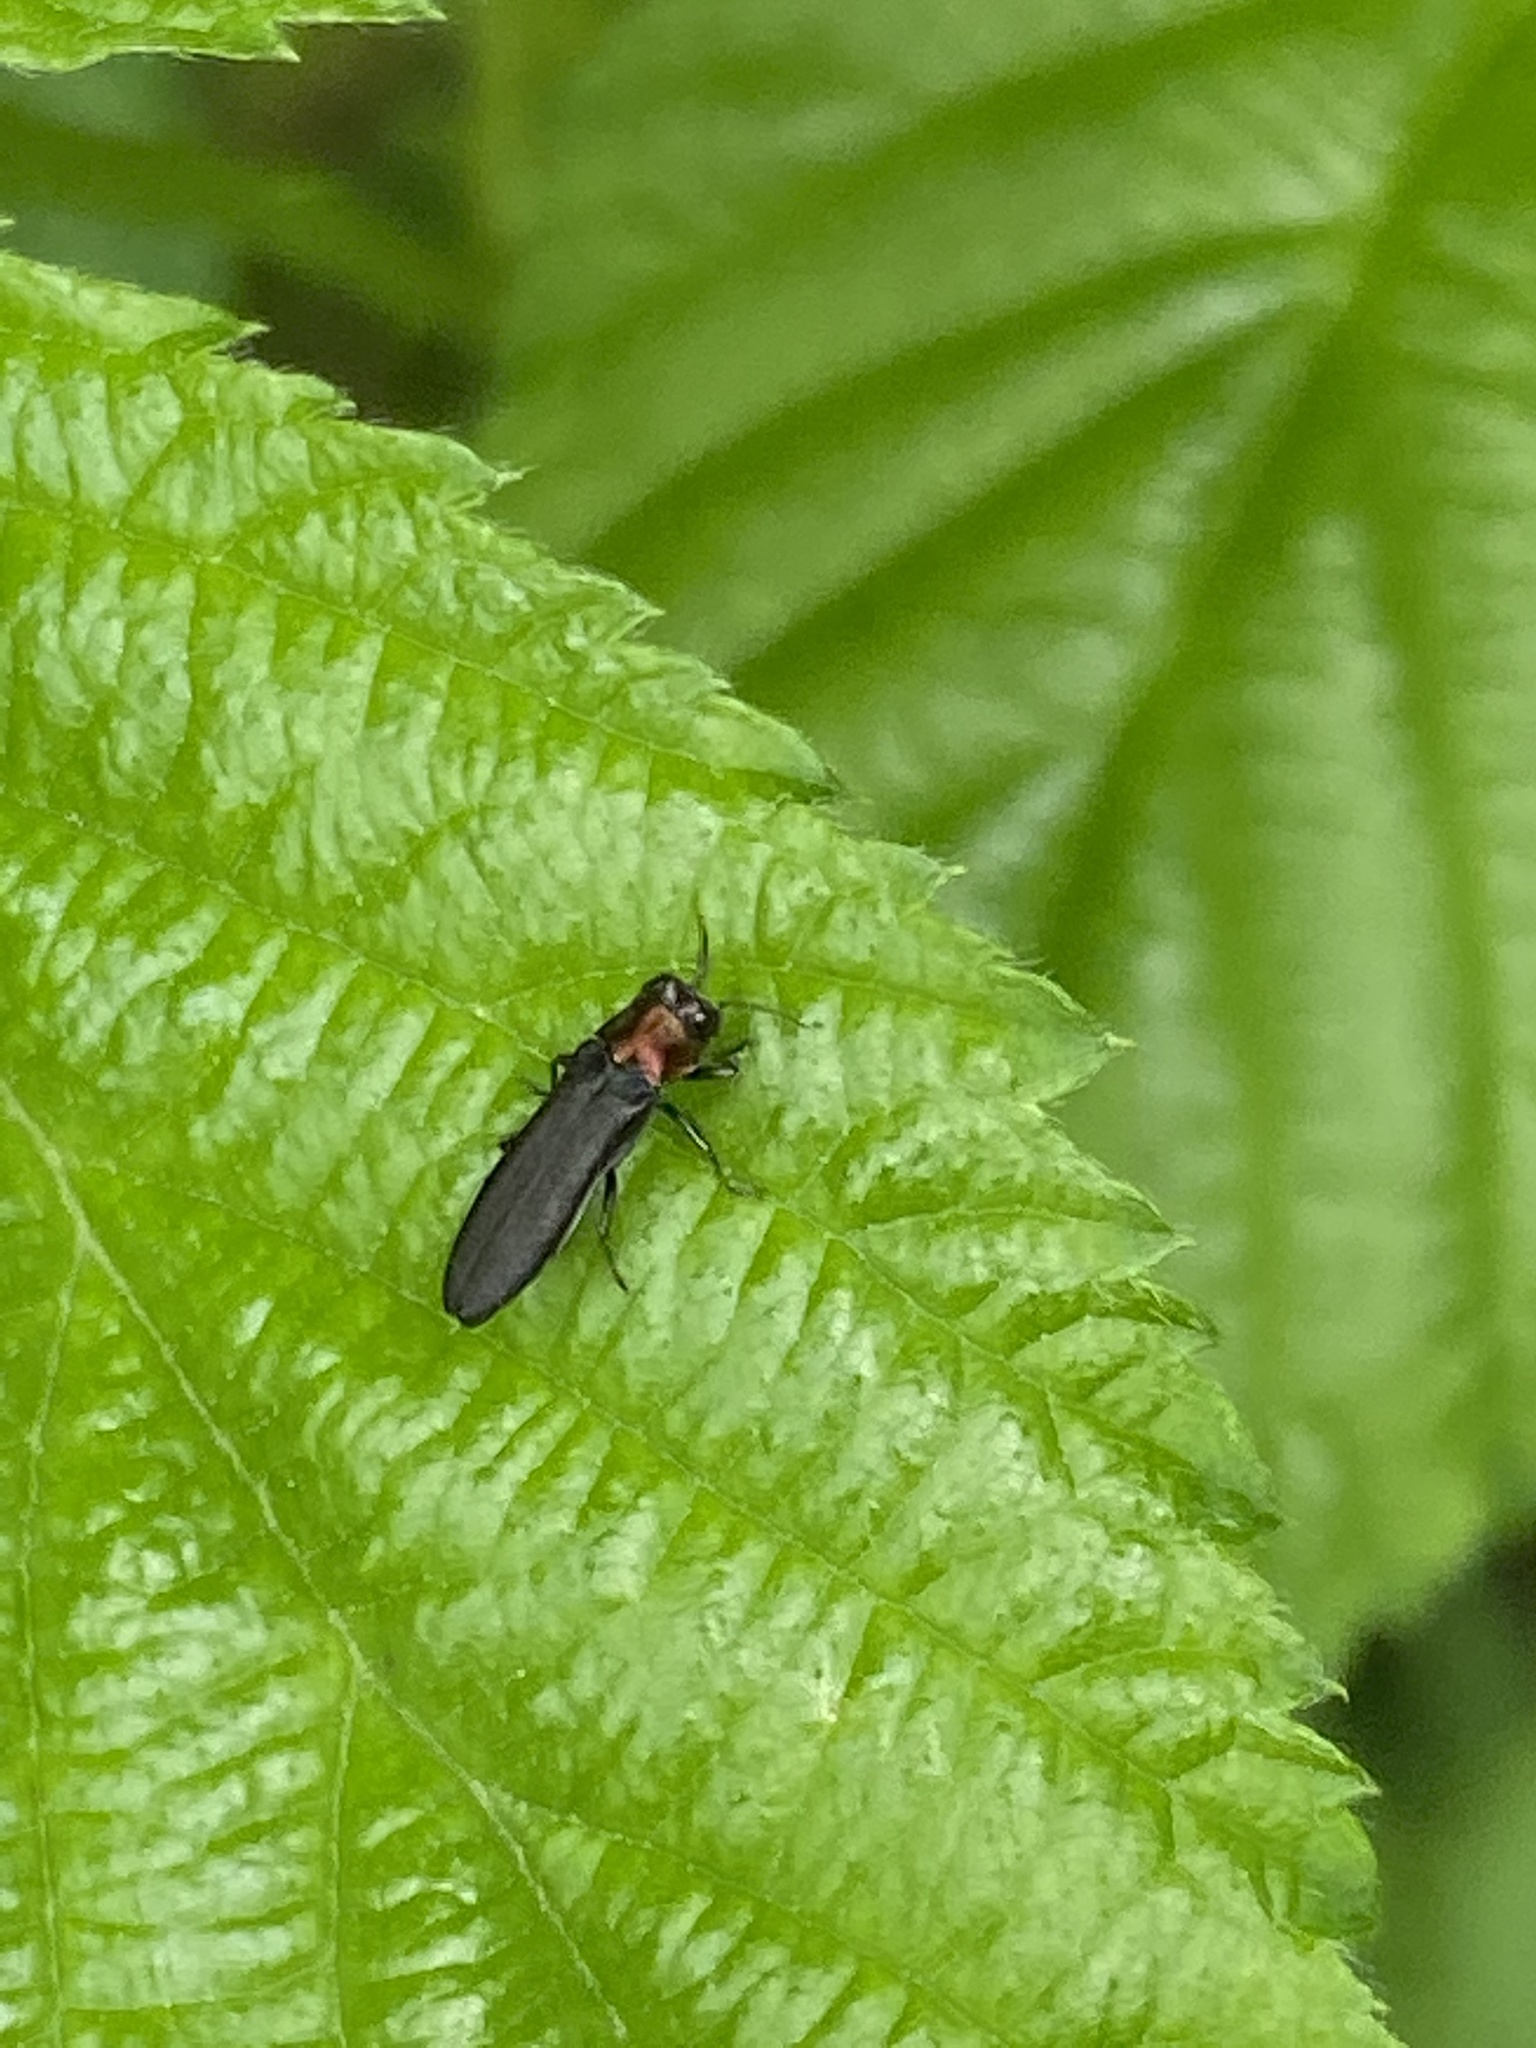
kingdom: Animalia
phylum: Arthropoda
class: Insecta
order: Coleoptera
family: Buprestidae
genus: Agrilus
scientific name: Agrilus ruficollis
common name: Red-necked cane borer beetle
